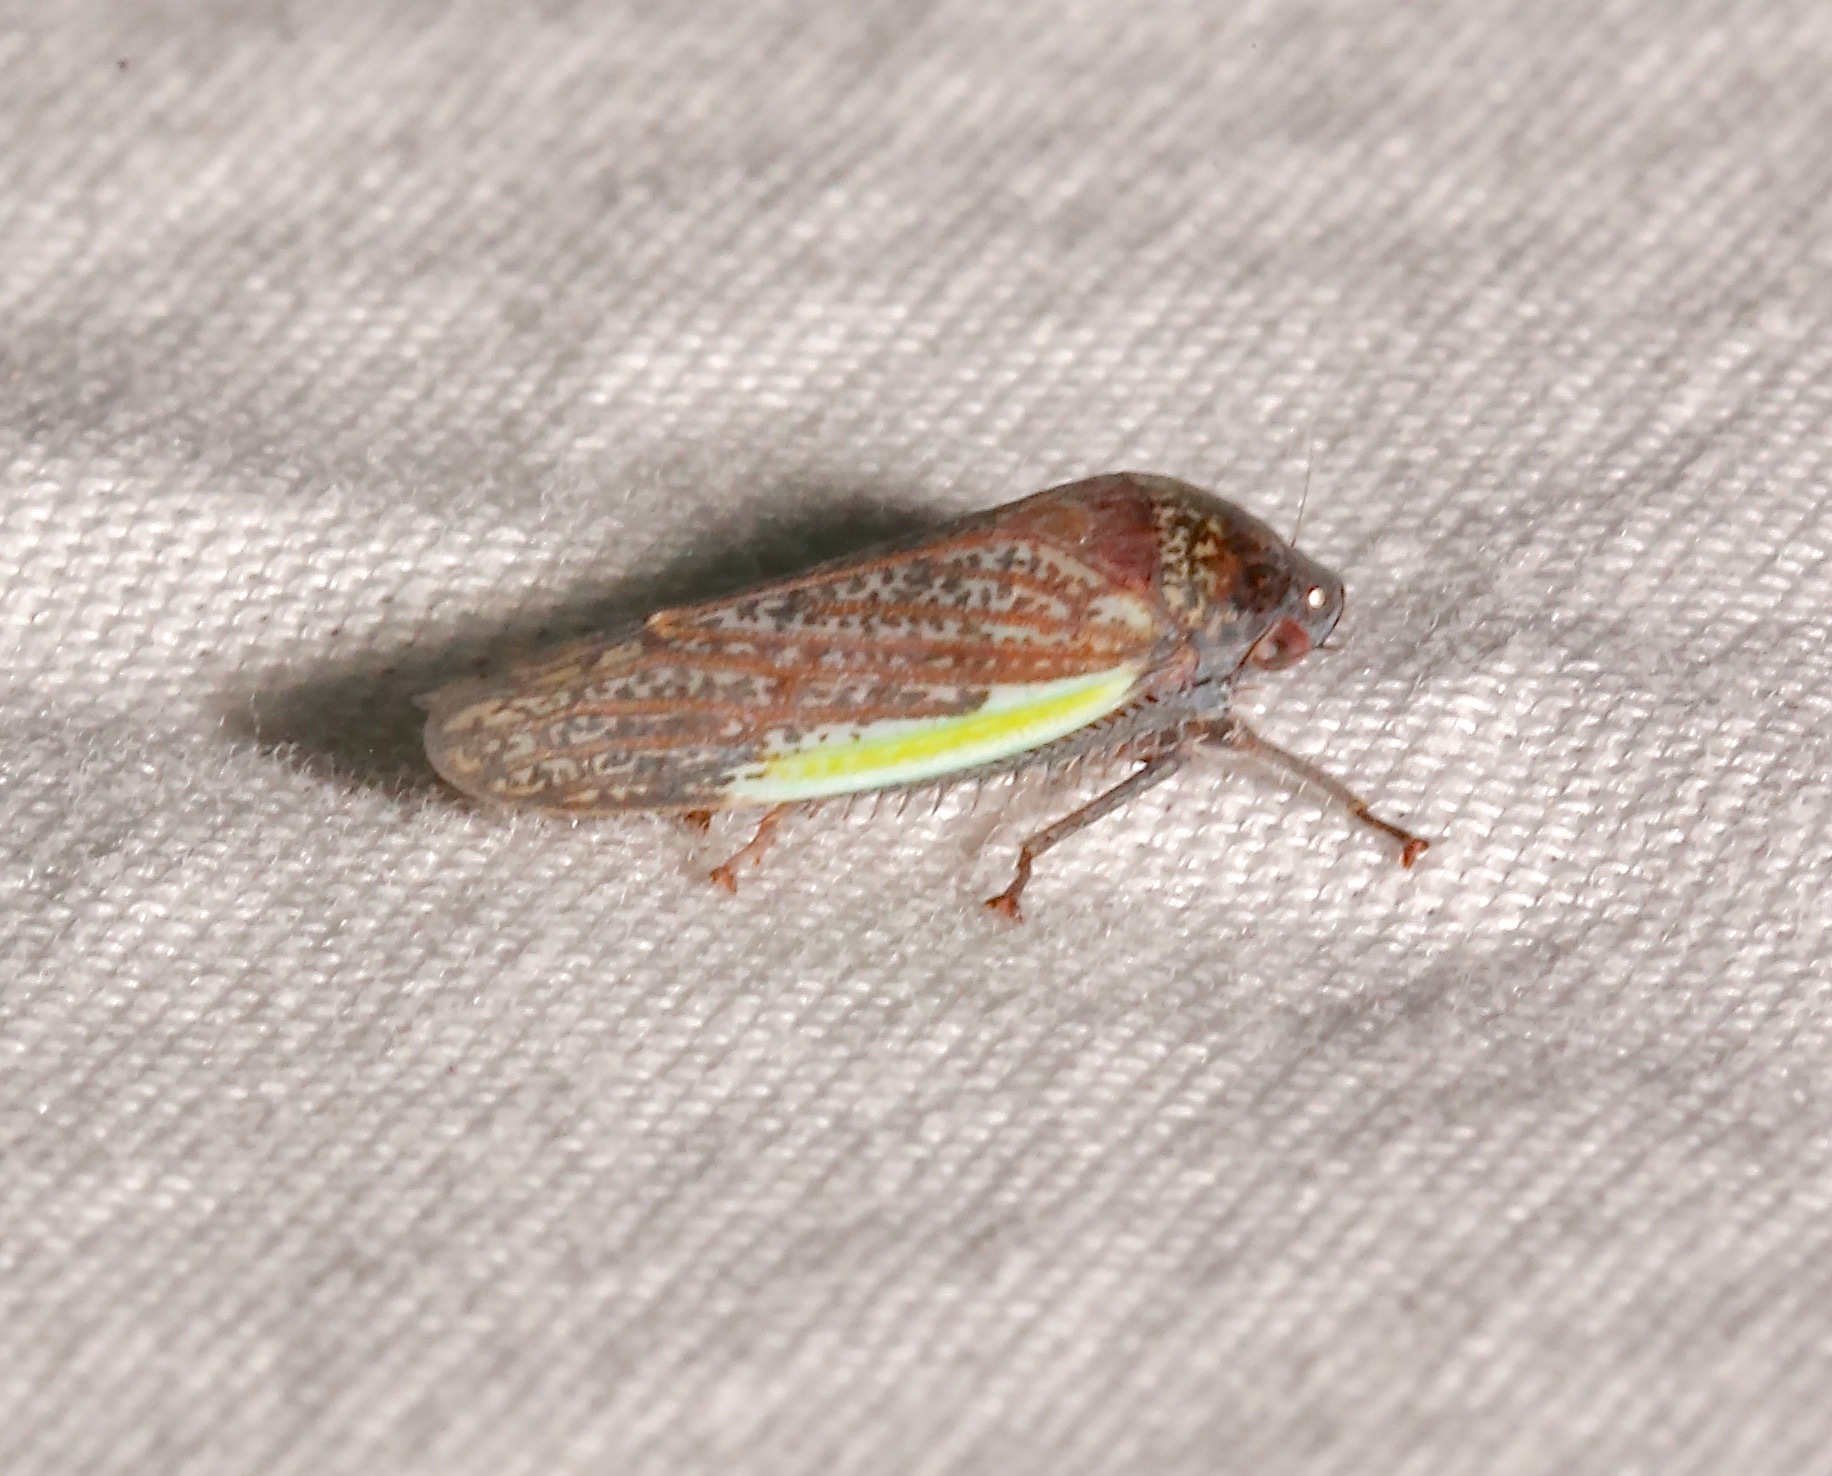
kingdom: Animalia
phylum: Arthropoda
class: Insecta
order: Hemiptera
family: Cicadellidae
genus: Hamana
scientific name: Hamana gelbata
